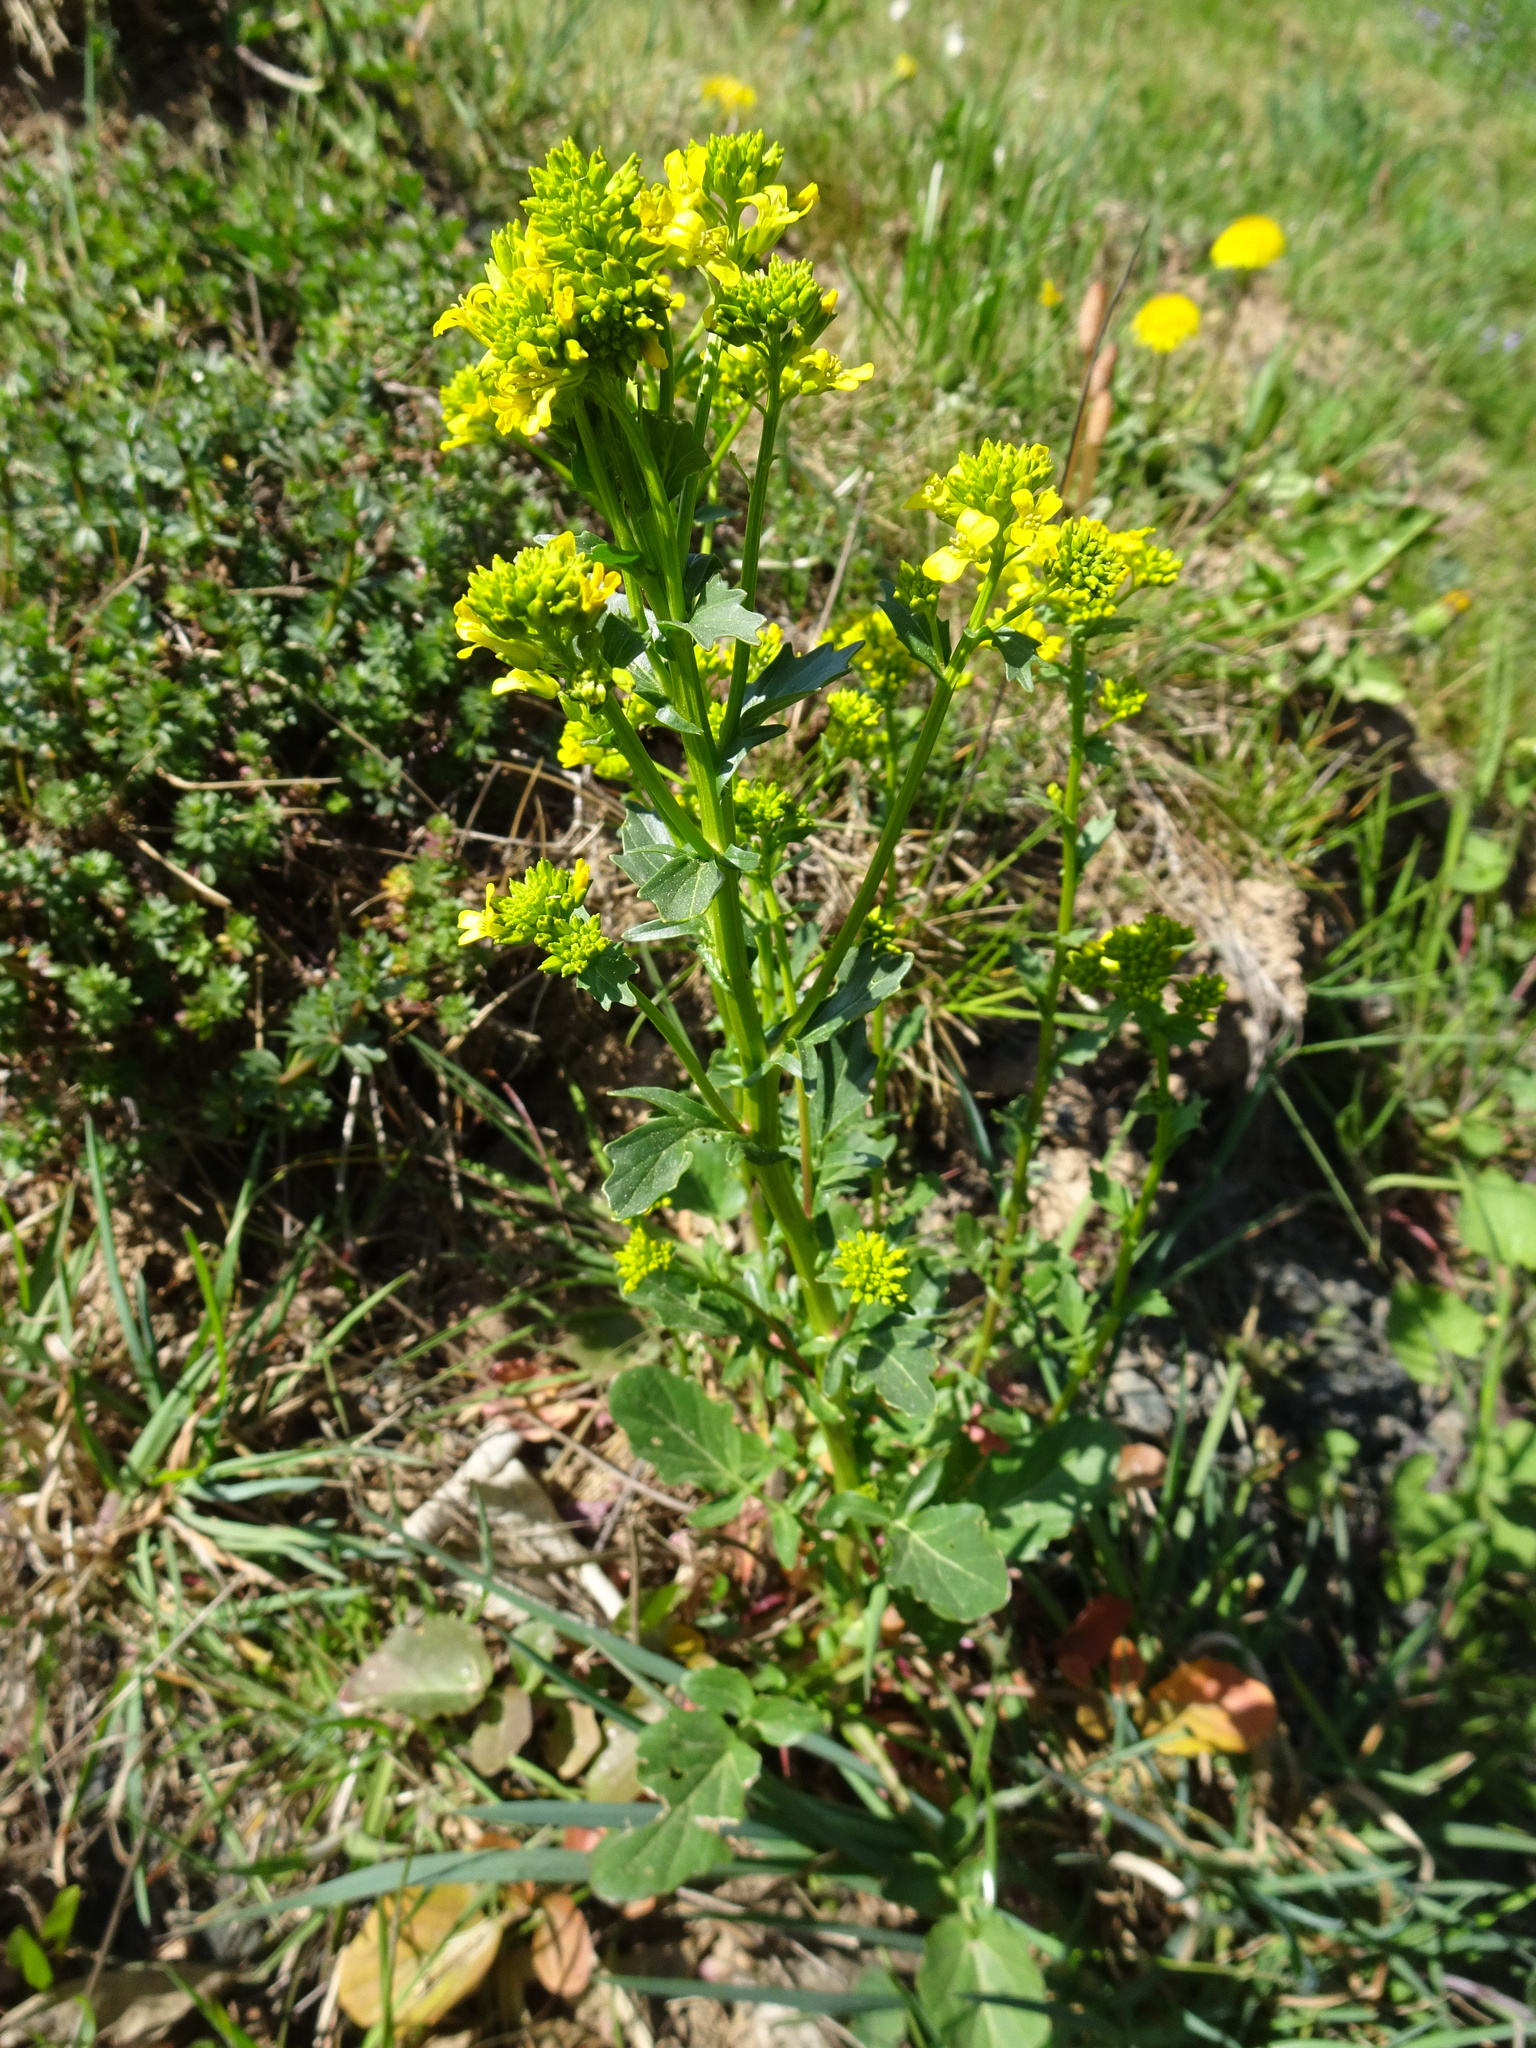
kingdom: Plantae
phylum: Tracheophyta
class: Magnoliopsida
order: Brassicales
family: Brassicaceae
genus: Barbarea
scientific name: Barbarea vulgaris
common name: Cressy-greens
